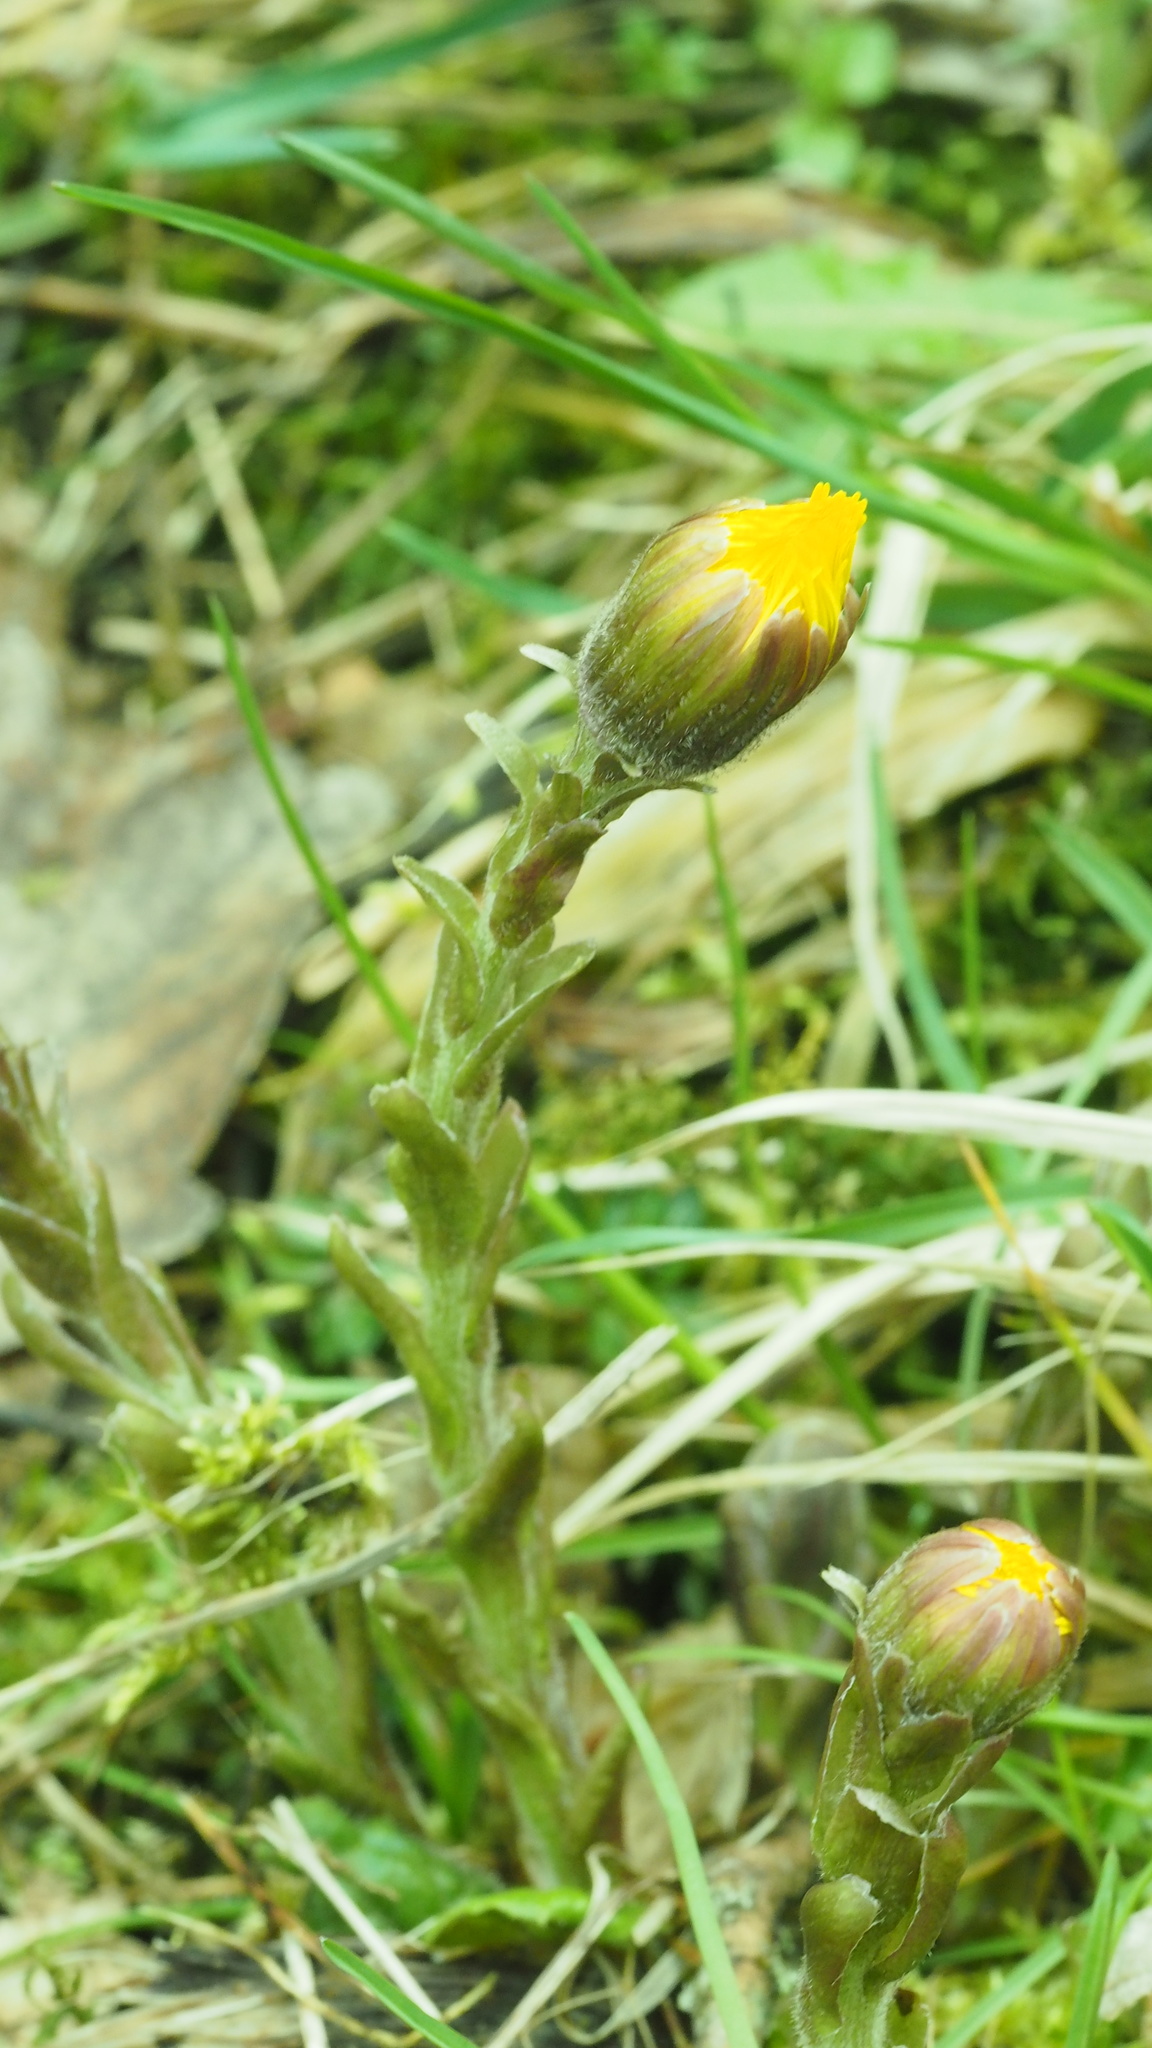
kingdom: Plantae
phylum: Tracheophyta
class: Magnoliopsida
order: Asterales
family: Asteraceae
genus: Tussilago
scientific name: Tussilago farfara
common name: Coltsfoot
